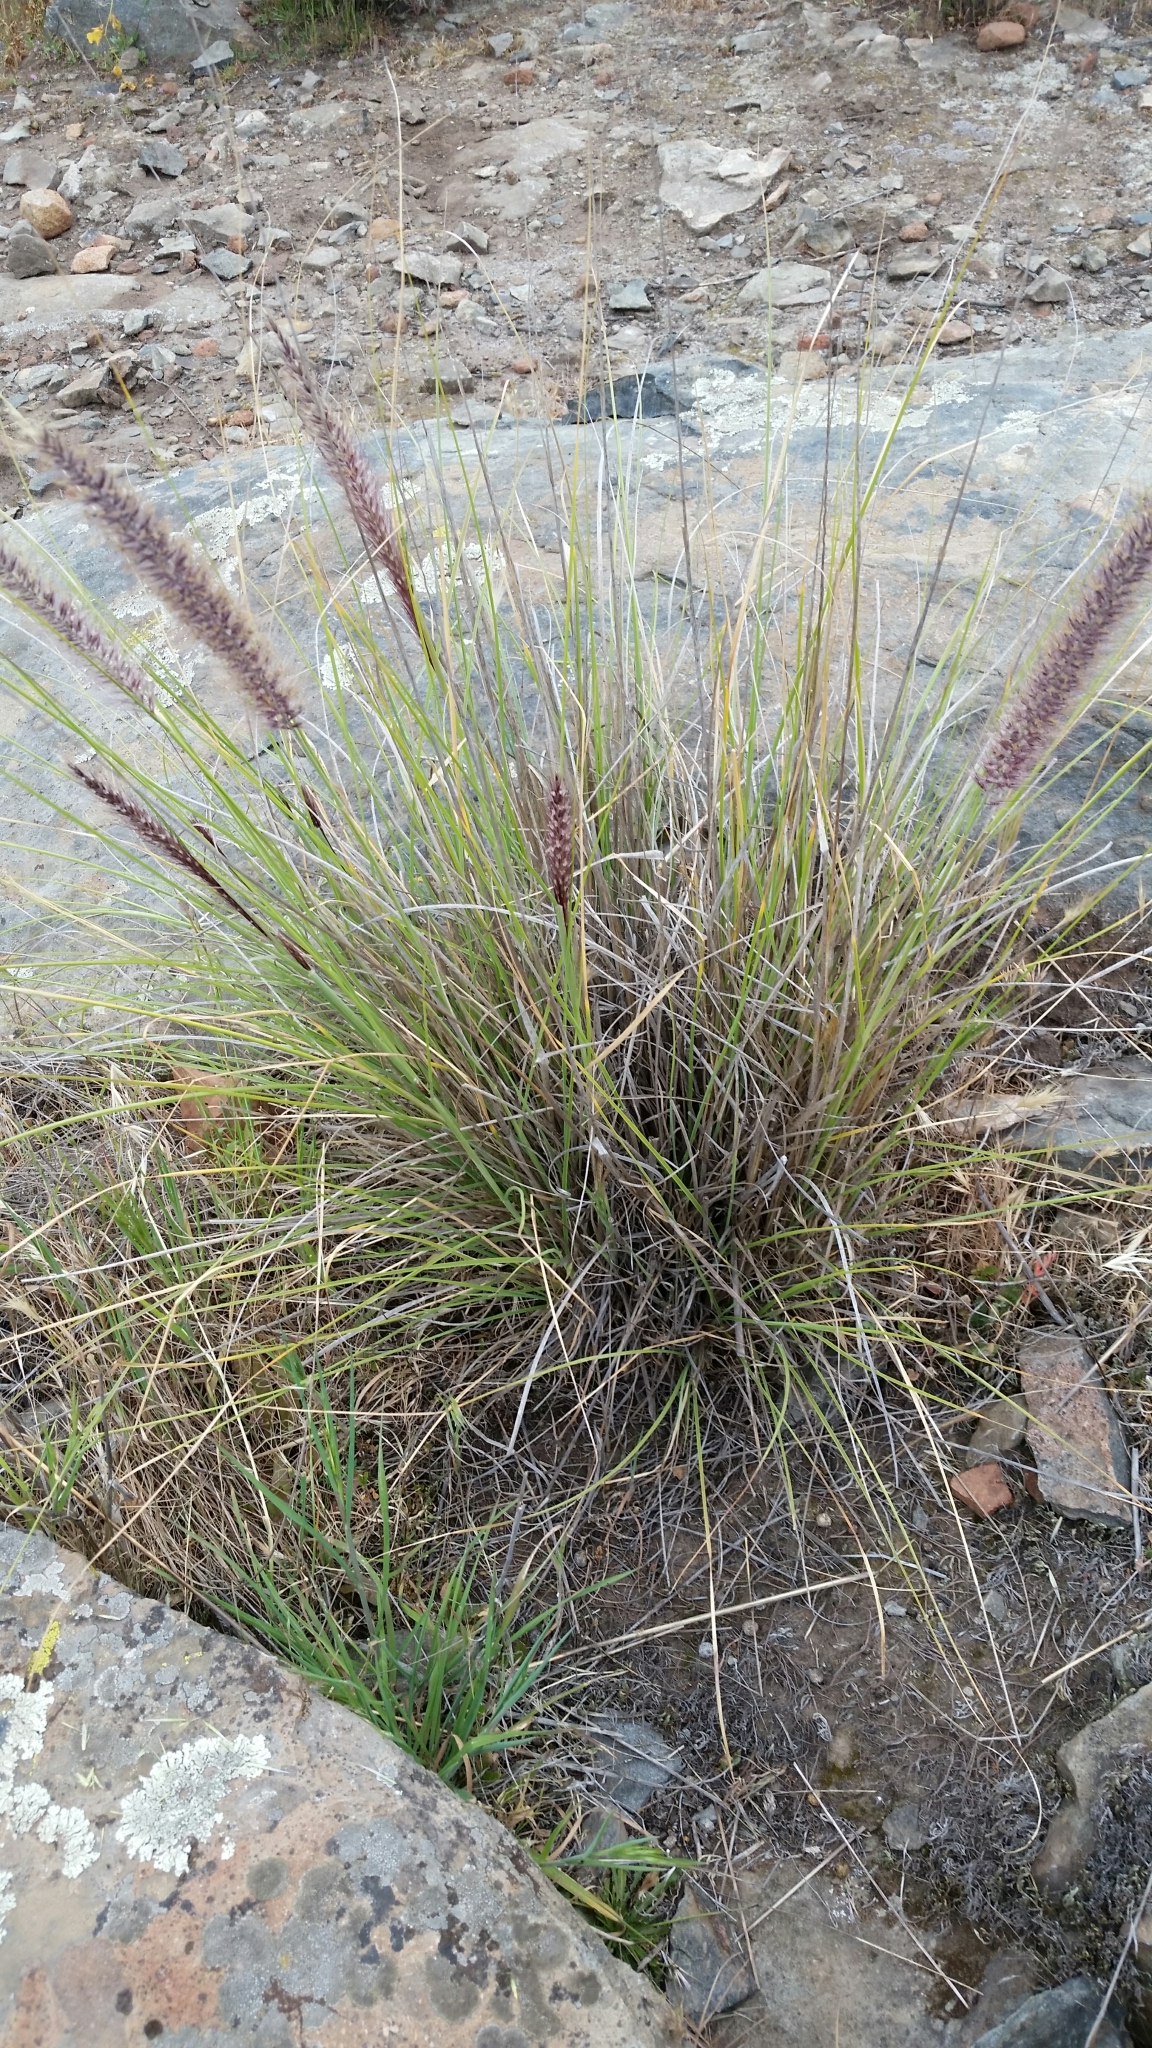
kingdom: Plantae
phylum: Tracheophyta
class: Liliopsida
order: Poales
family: Poaceae
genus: Cenchrus
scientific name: Cenchrus setaceus
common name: Crimson fountaingrass
